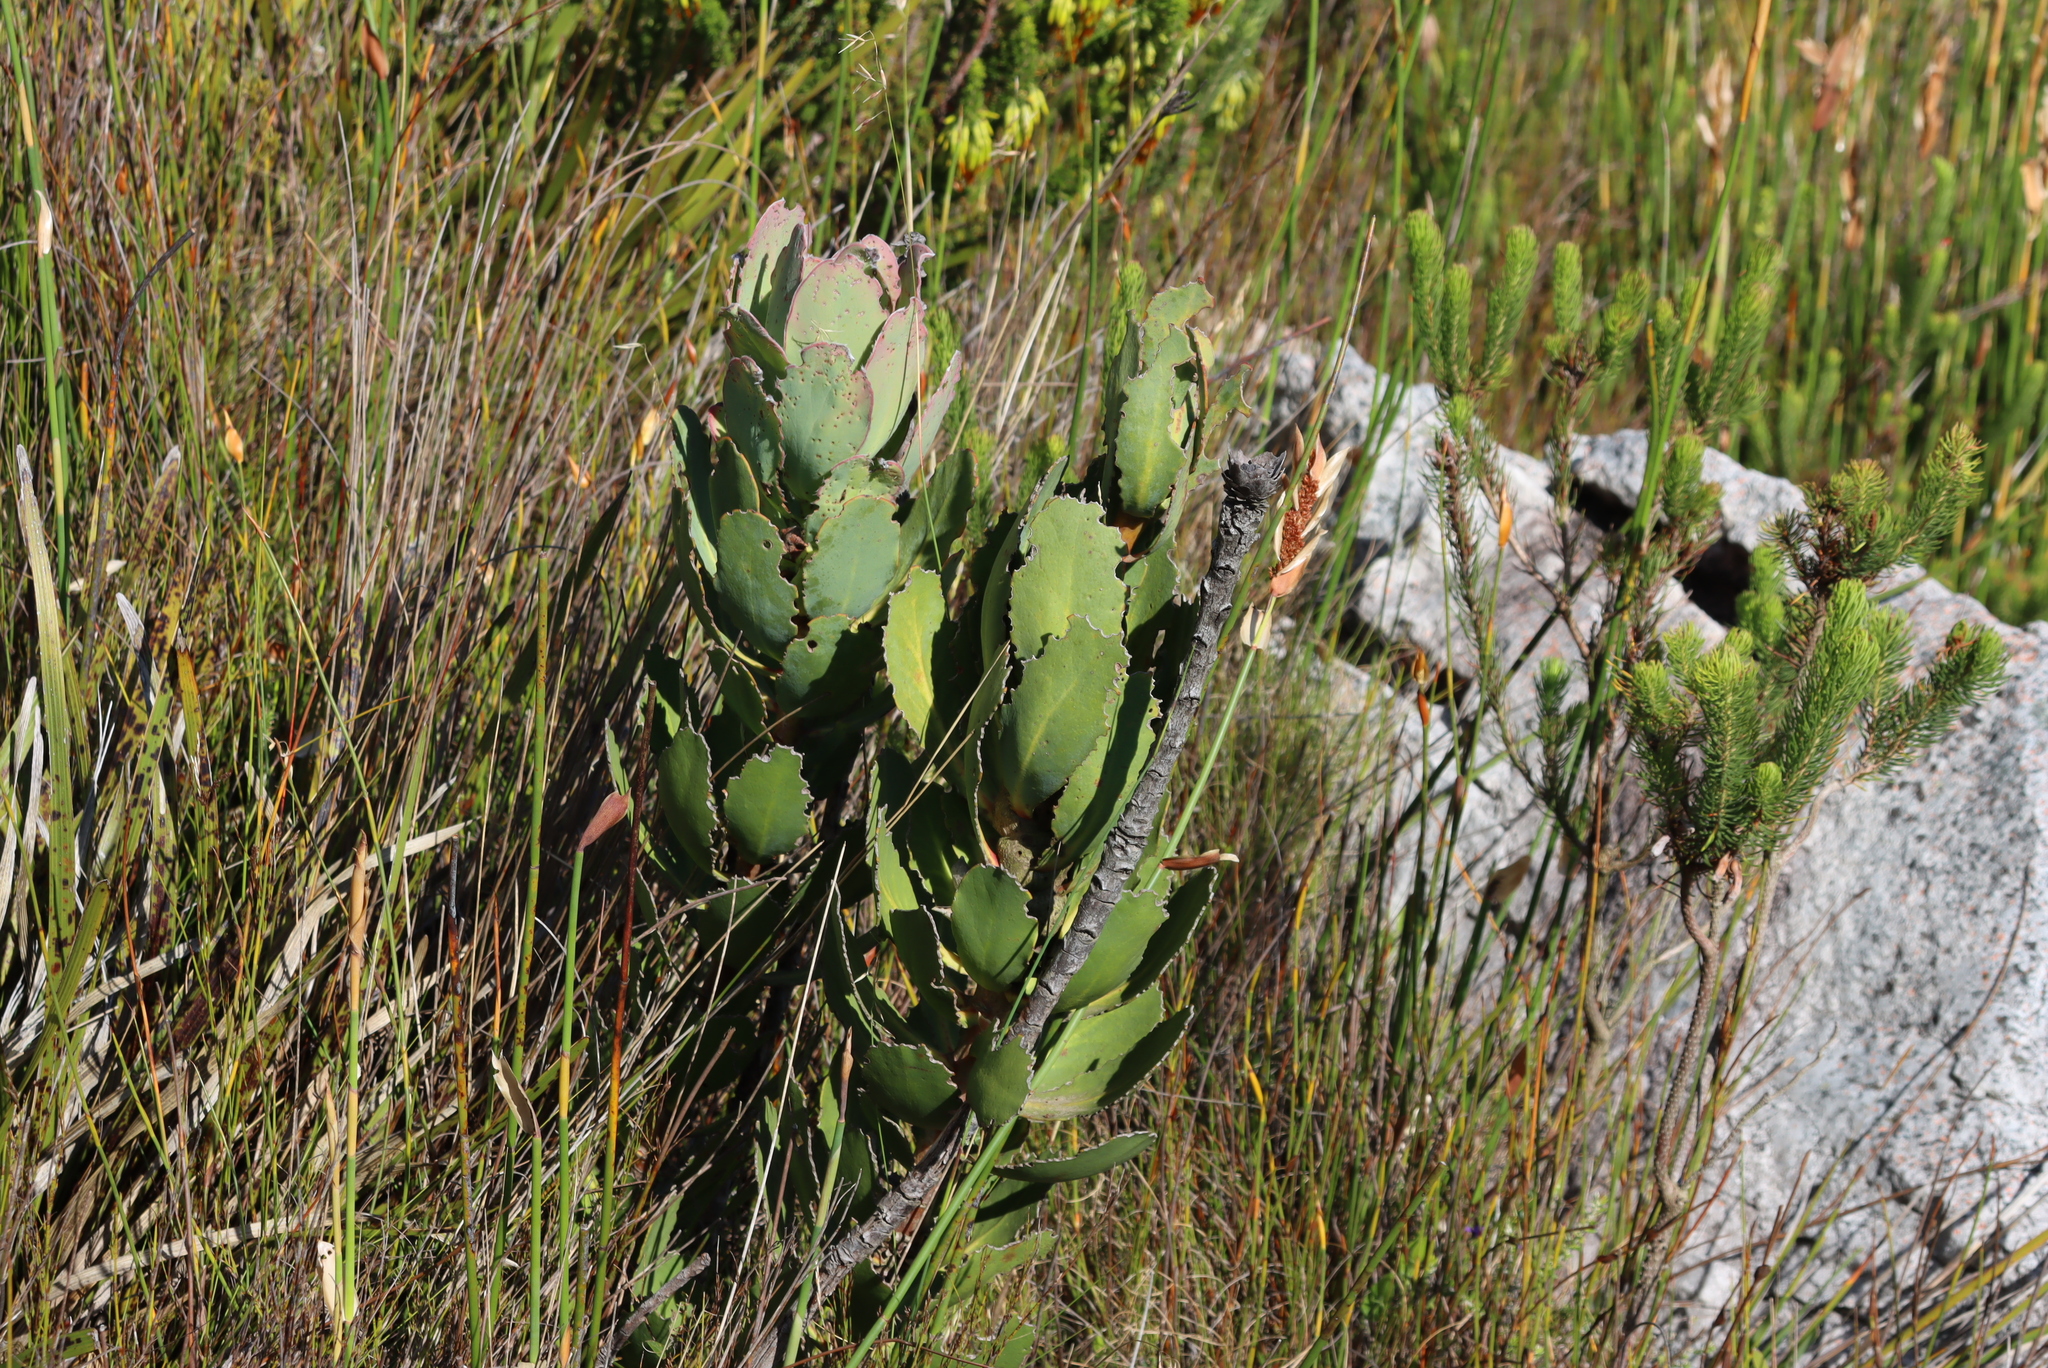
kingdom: Plantae
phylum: Tracheophyta
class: Magnoliopsida
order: Proteales
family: Proteaceae
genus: Protea
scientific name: Protea speciosa
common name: Brown-beard sugarbush
